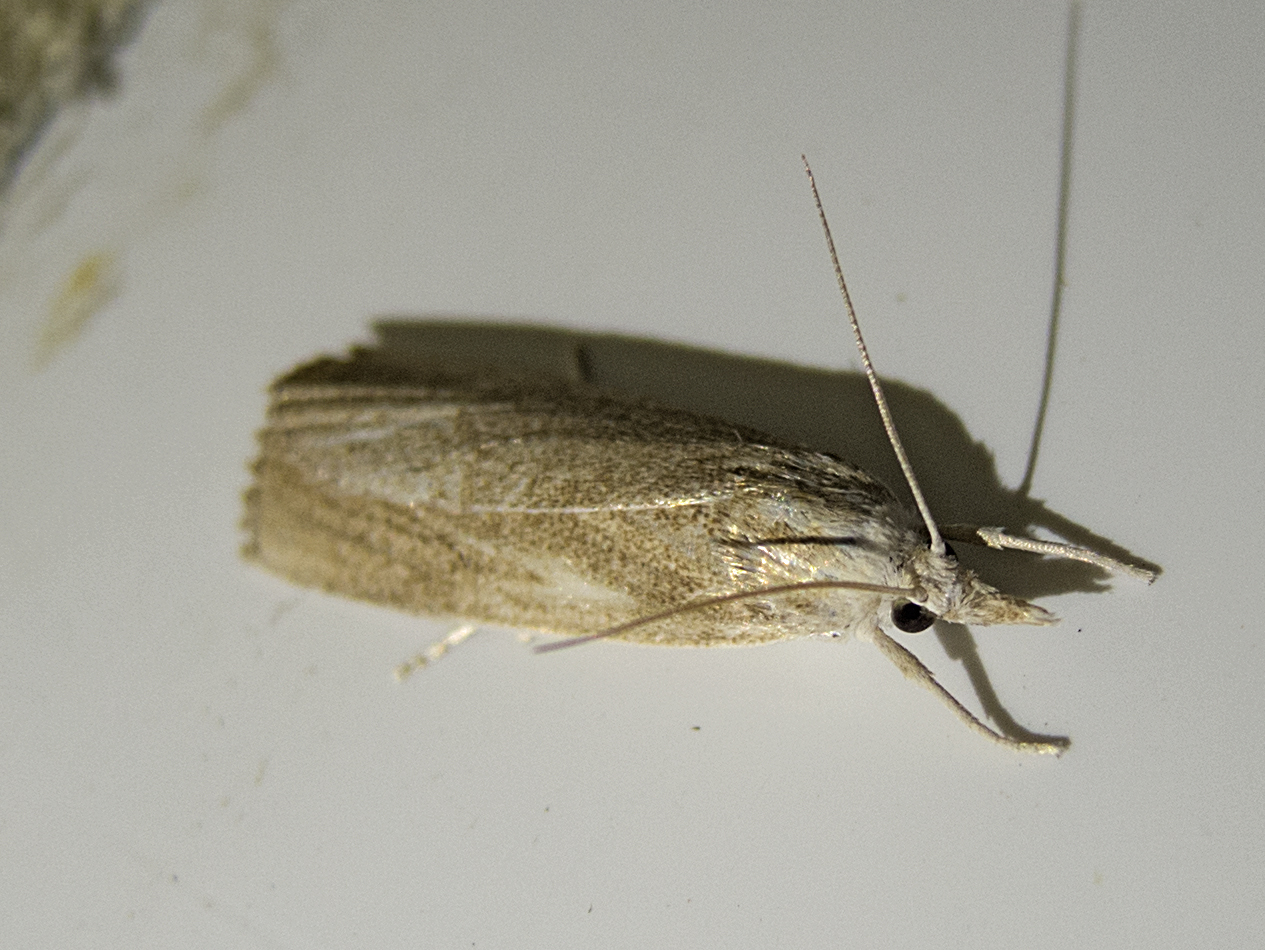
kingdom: Animalia
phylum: Arthropoda
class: Insecta
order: Lepidoptera
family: Crambidae
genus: Calamotropha
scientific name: Calamotropha paludella
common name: Bulrush veneer
